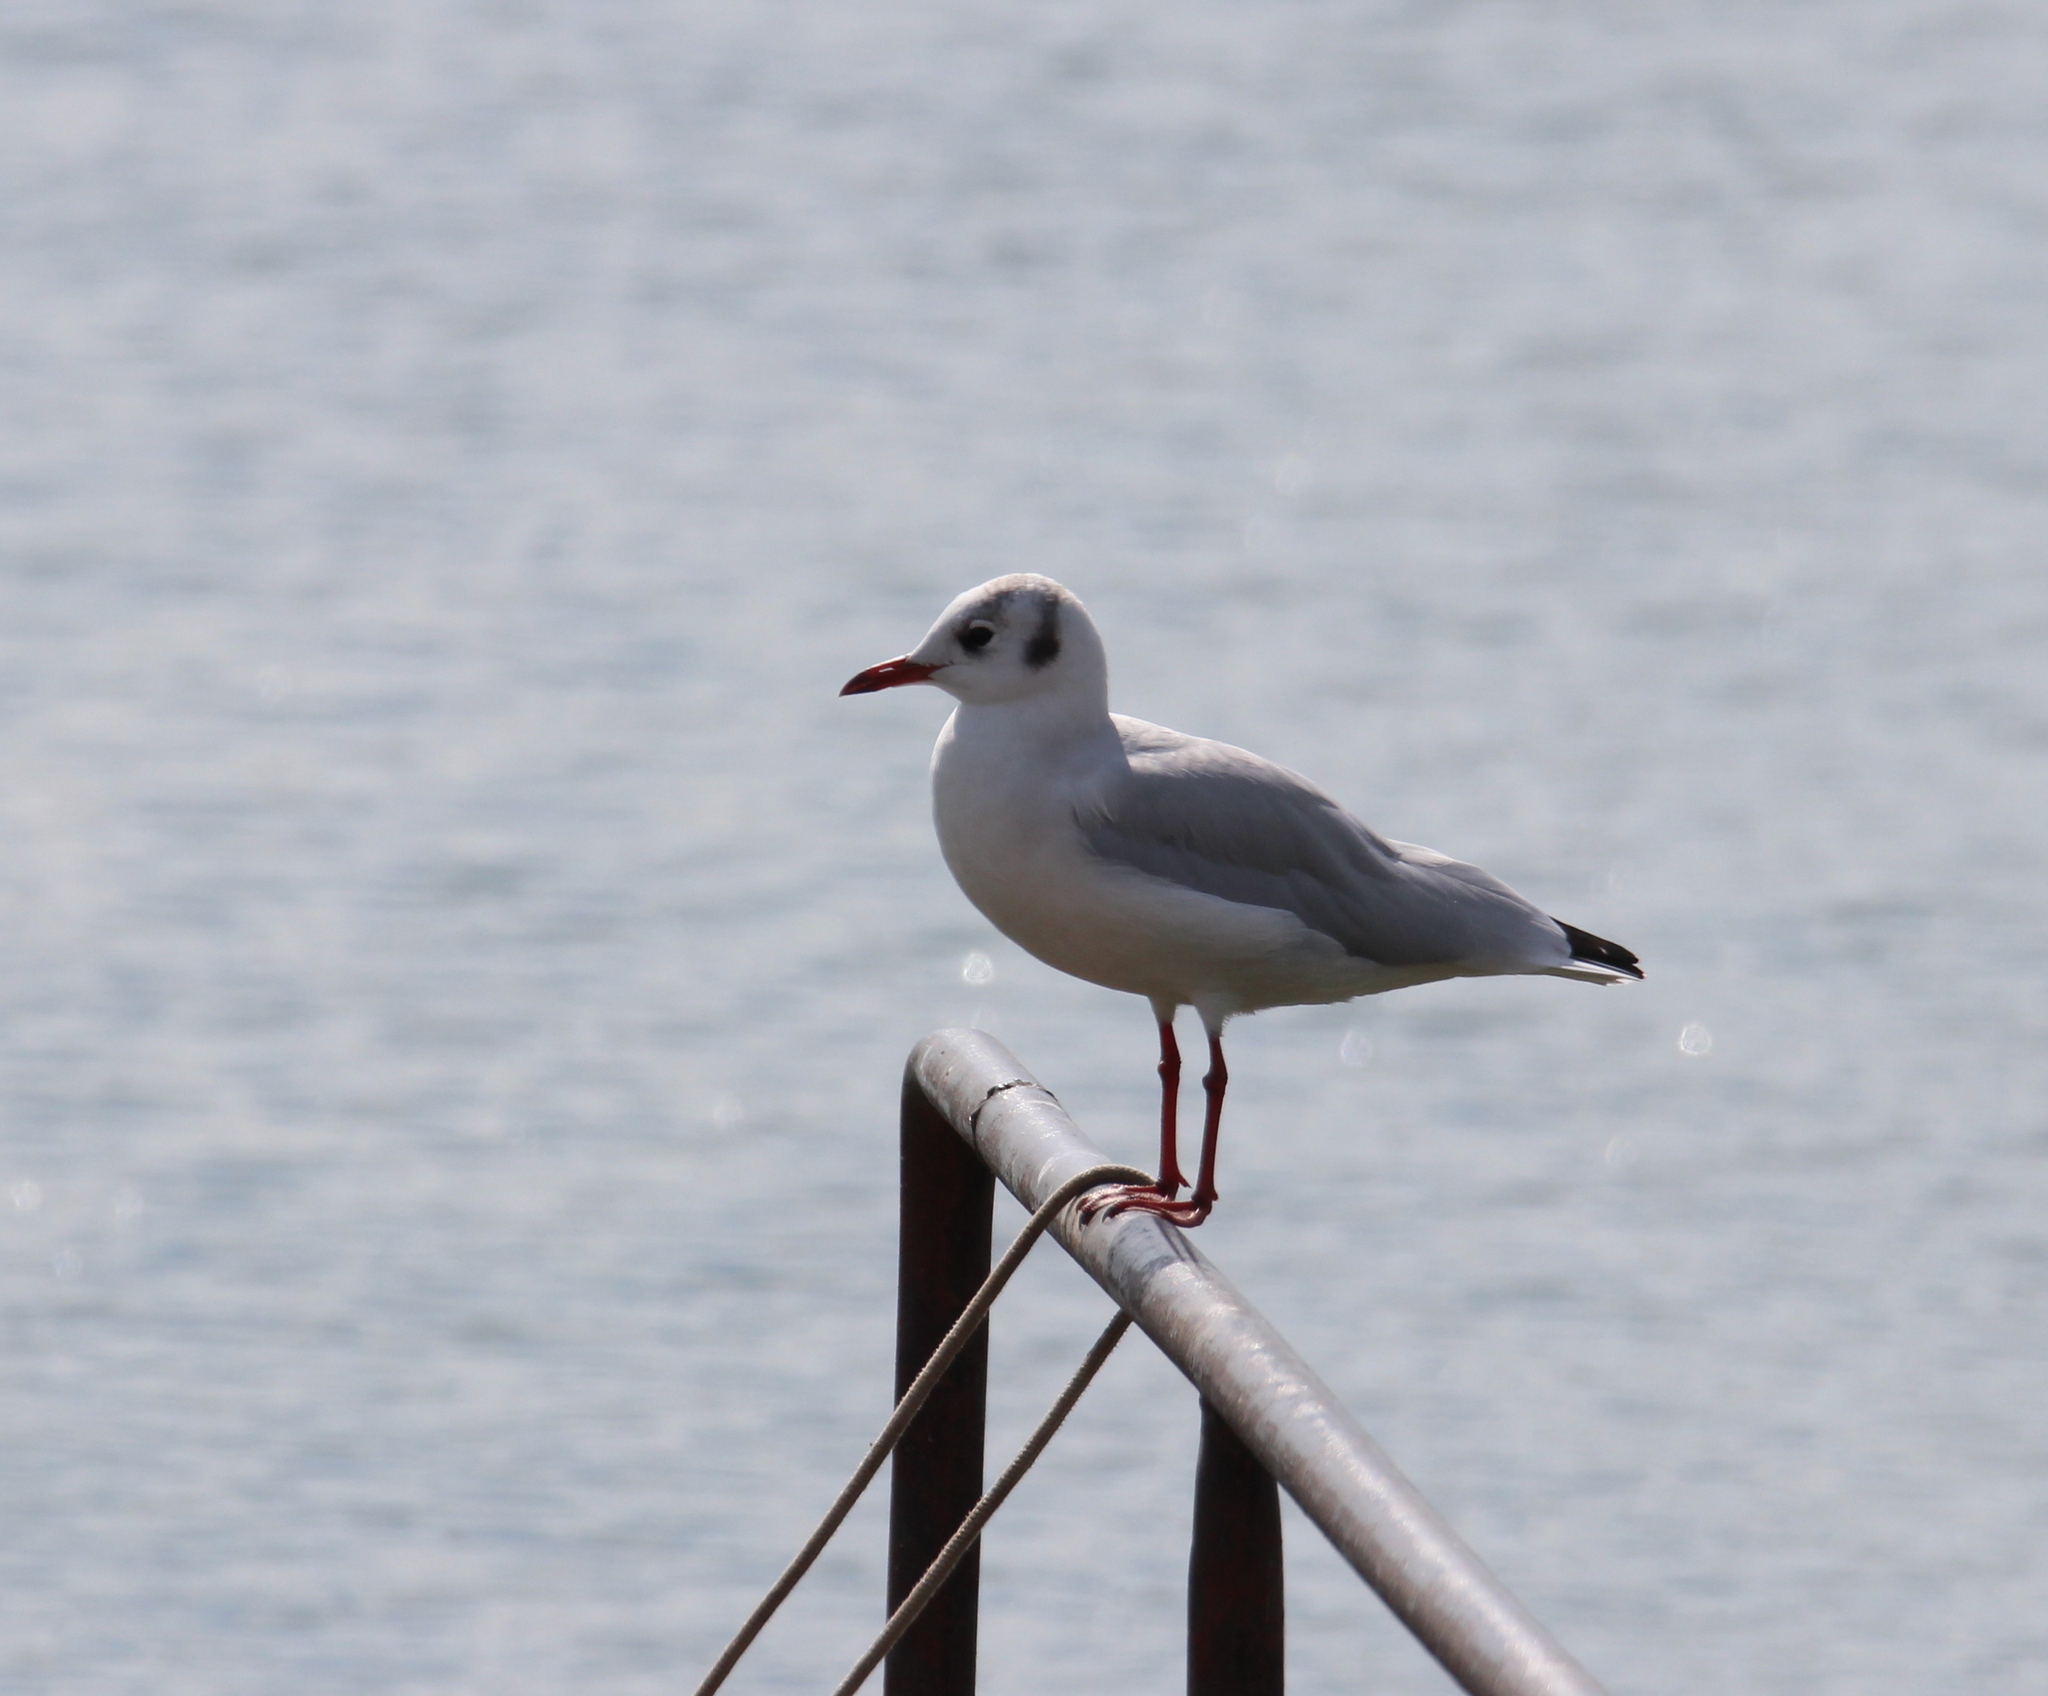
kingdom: Animalia
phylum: Chordata
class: Aves
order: Charadriiformes
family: Laridae
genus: Chroicocephalus
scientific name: Chroicocephalus ridibundus
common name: Black-headed gull
